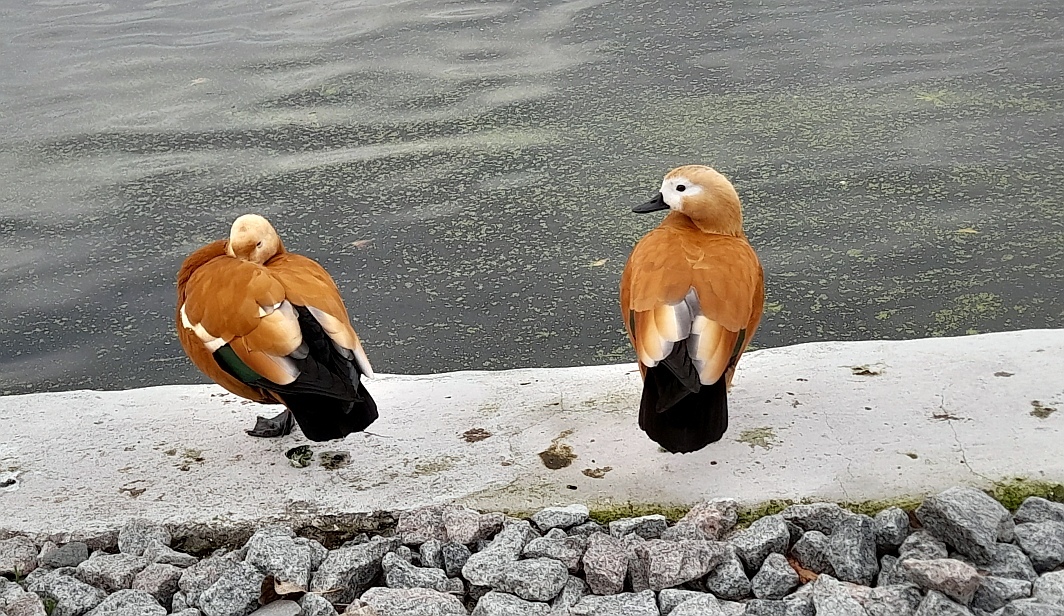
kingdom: Animalia
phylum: Chordata
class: Aves
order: Anseriformes
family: Anatidae
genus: Tadorna
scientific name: Tadorna ferruginea
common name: Ruddy shelduck
